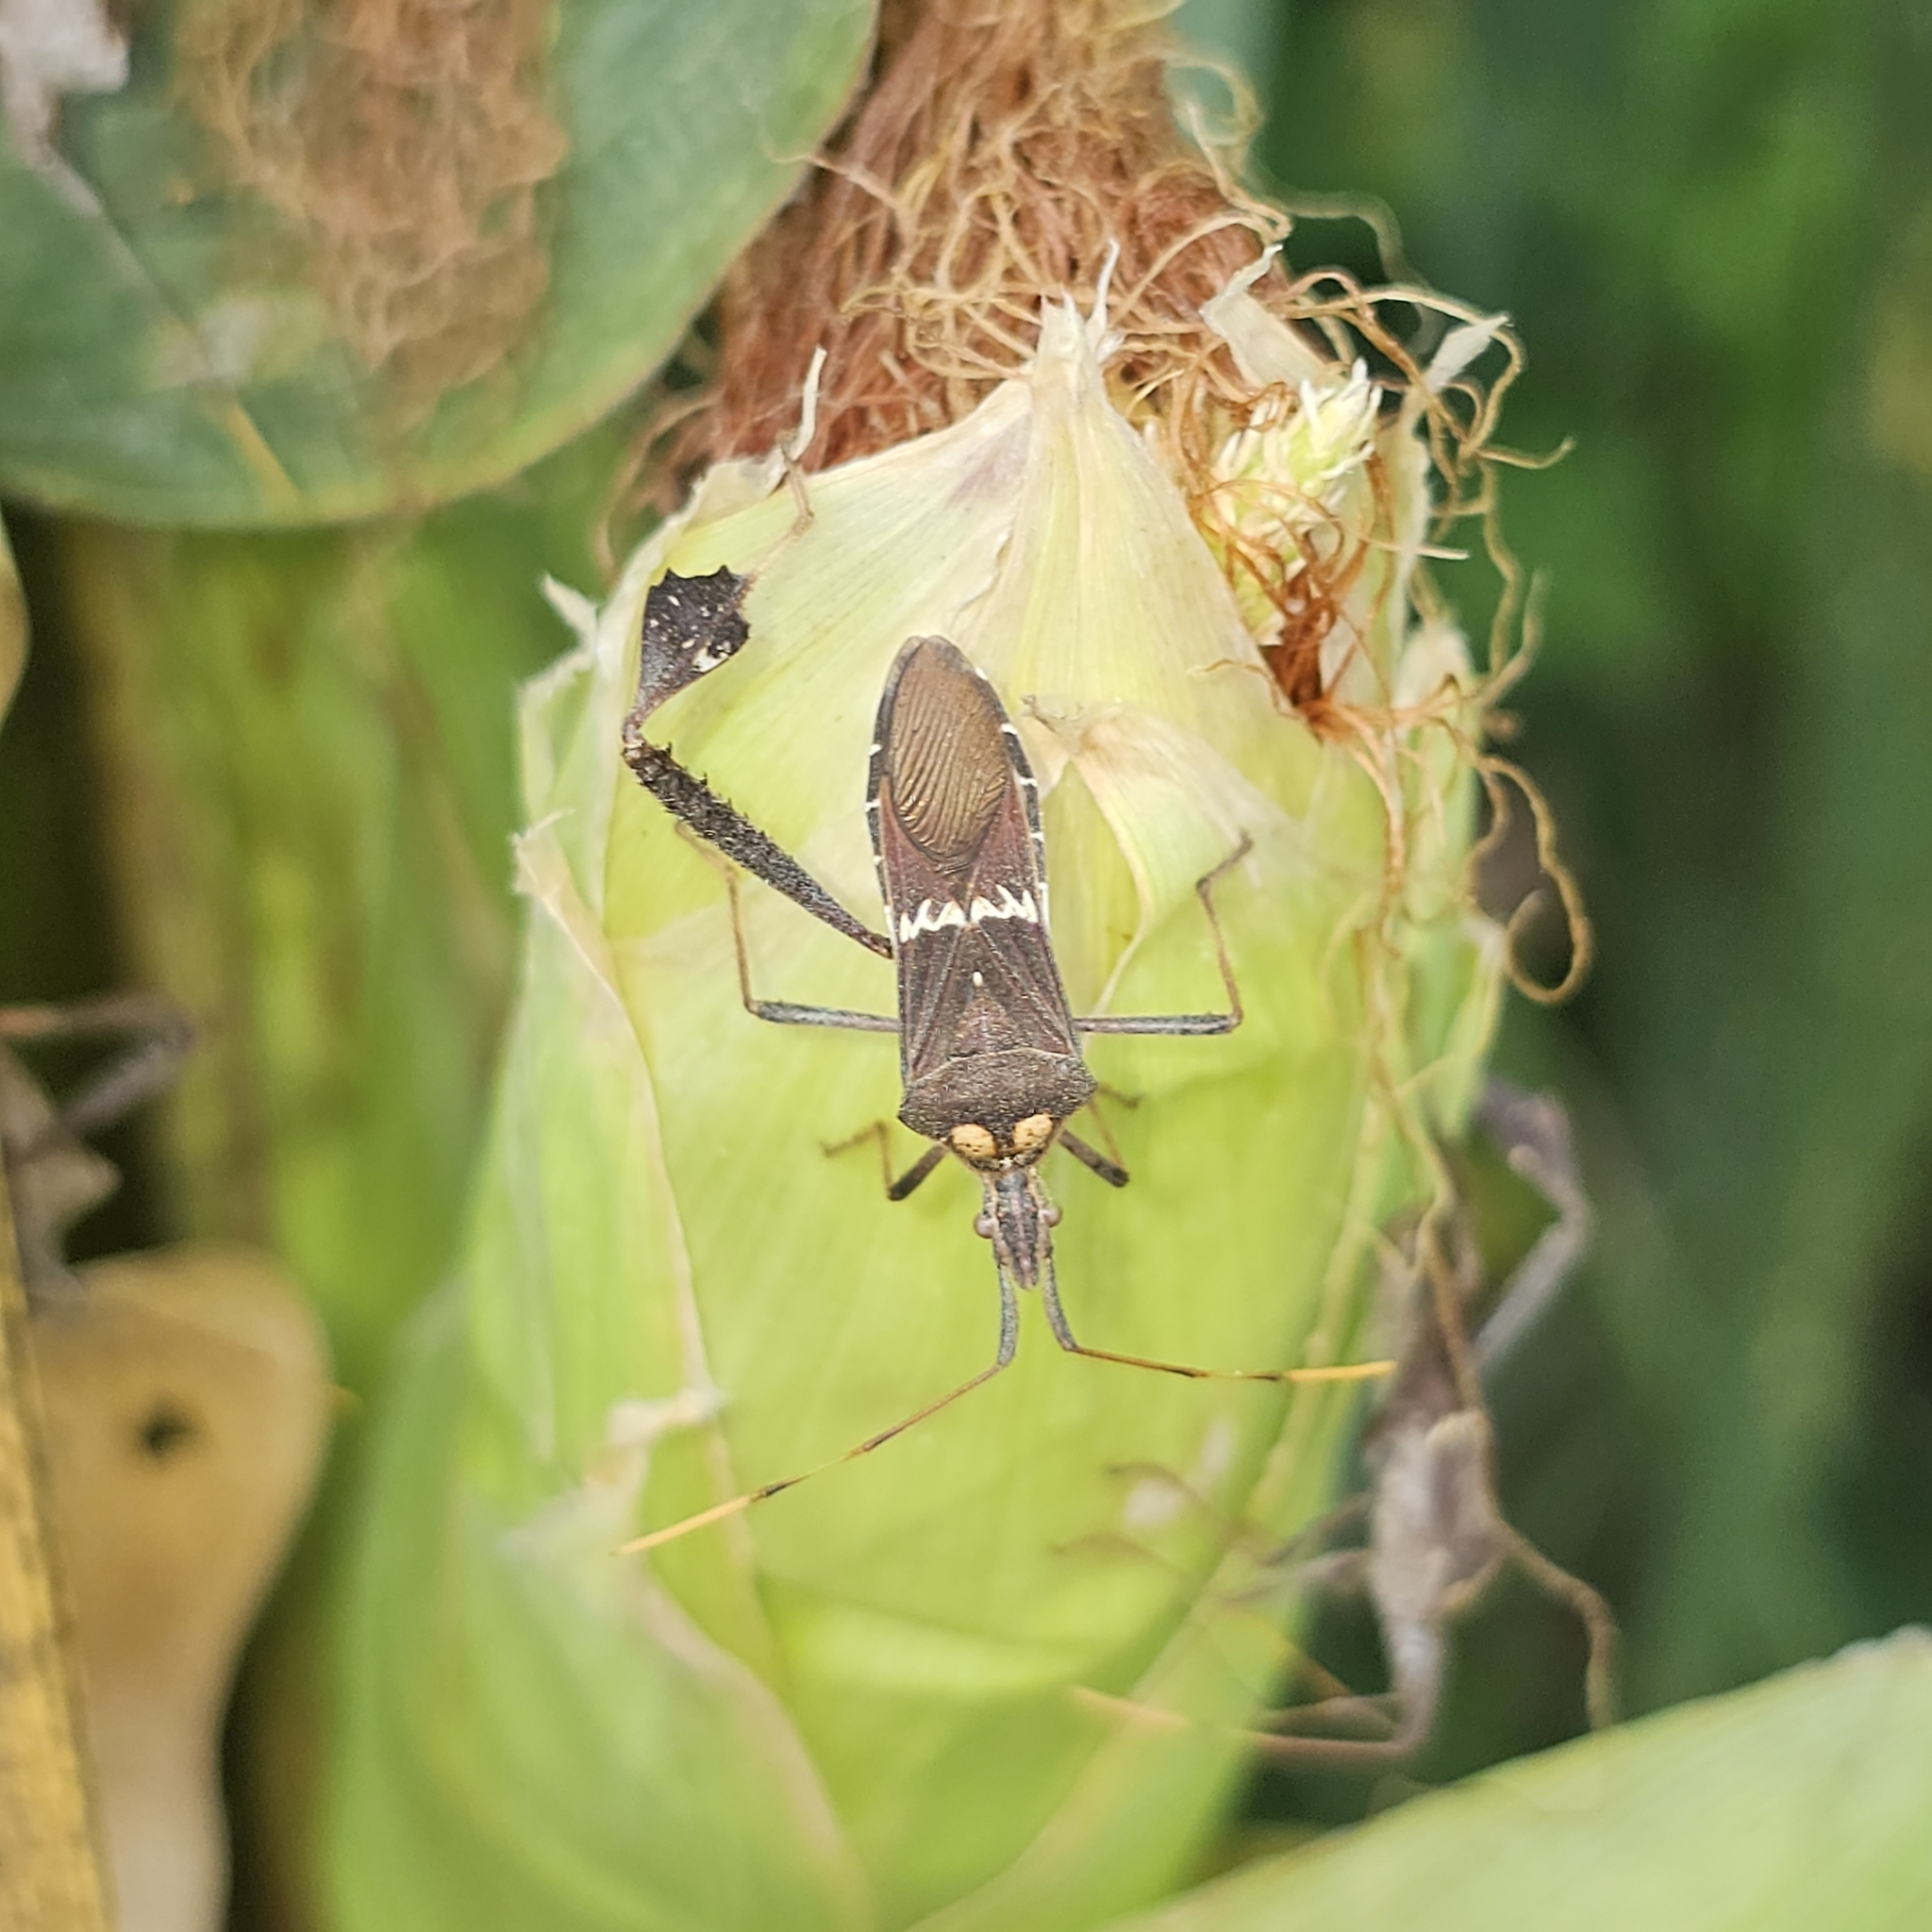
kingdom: Animalia
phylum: Arthropoda
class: Insecta
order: Hemiptera
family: Coreidae
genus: Leptoglossus
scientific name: Leptoglossus zonatus
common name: Large-legged bug
